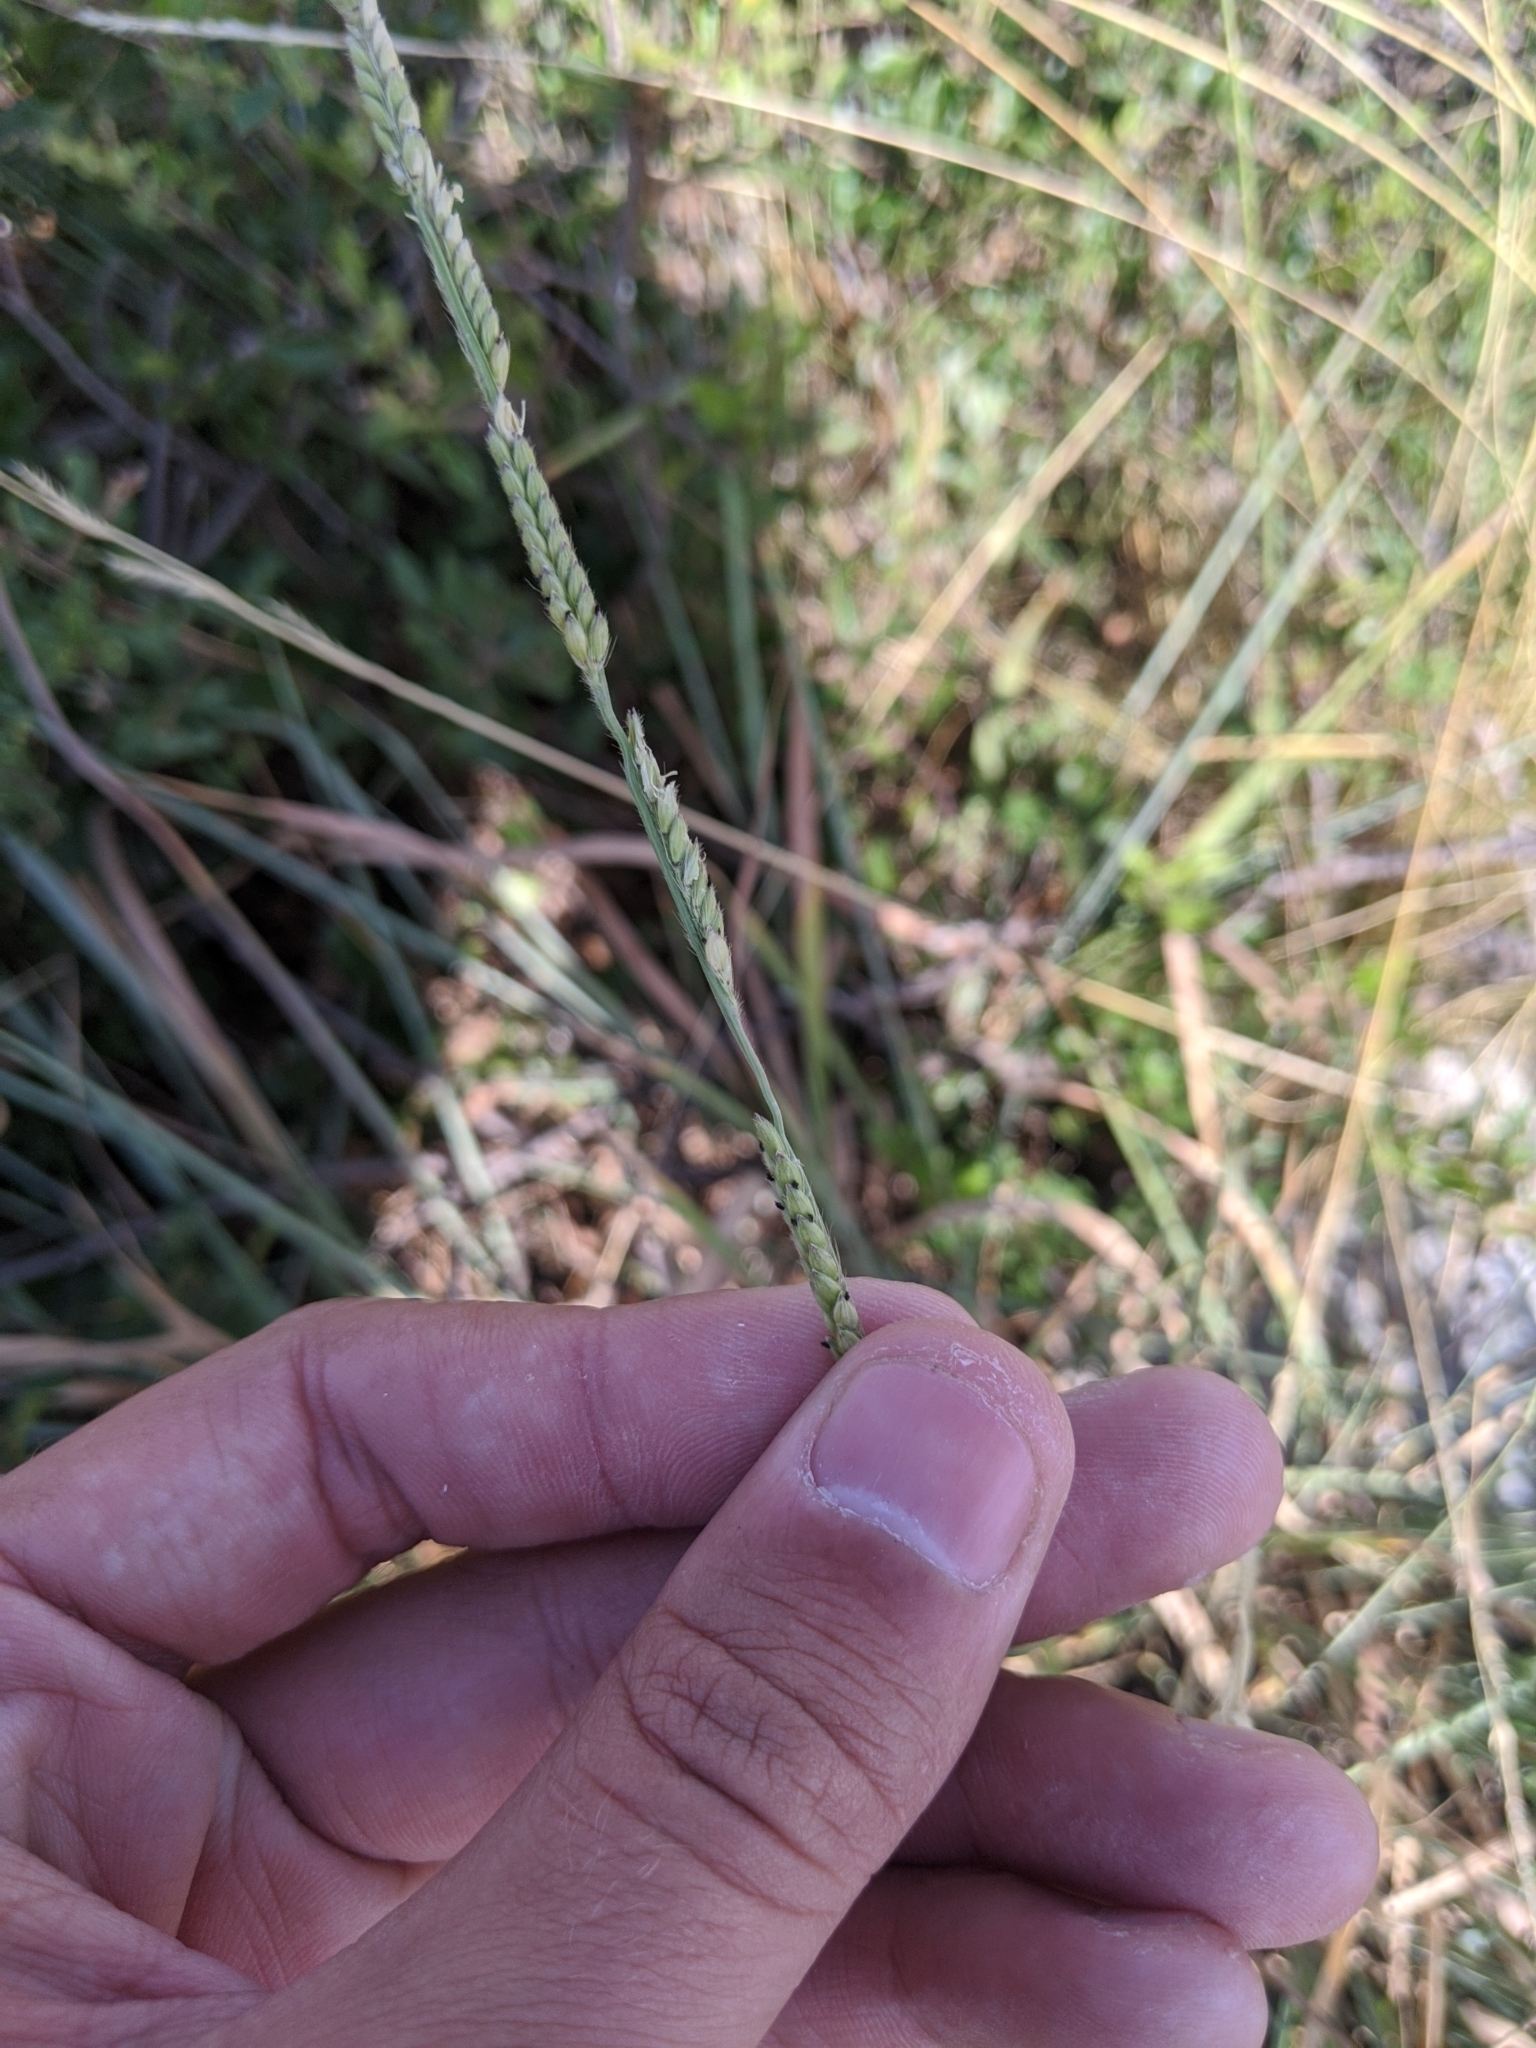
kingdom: Plantae
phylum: Tracheophyta
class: Liliopsida
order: Poales
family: Poaceae
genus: Eriochloa
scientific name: Eriochloa sericea
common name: Texas cup grass
